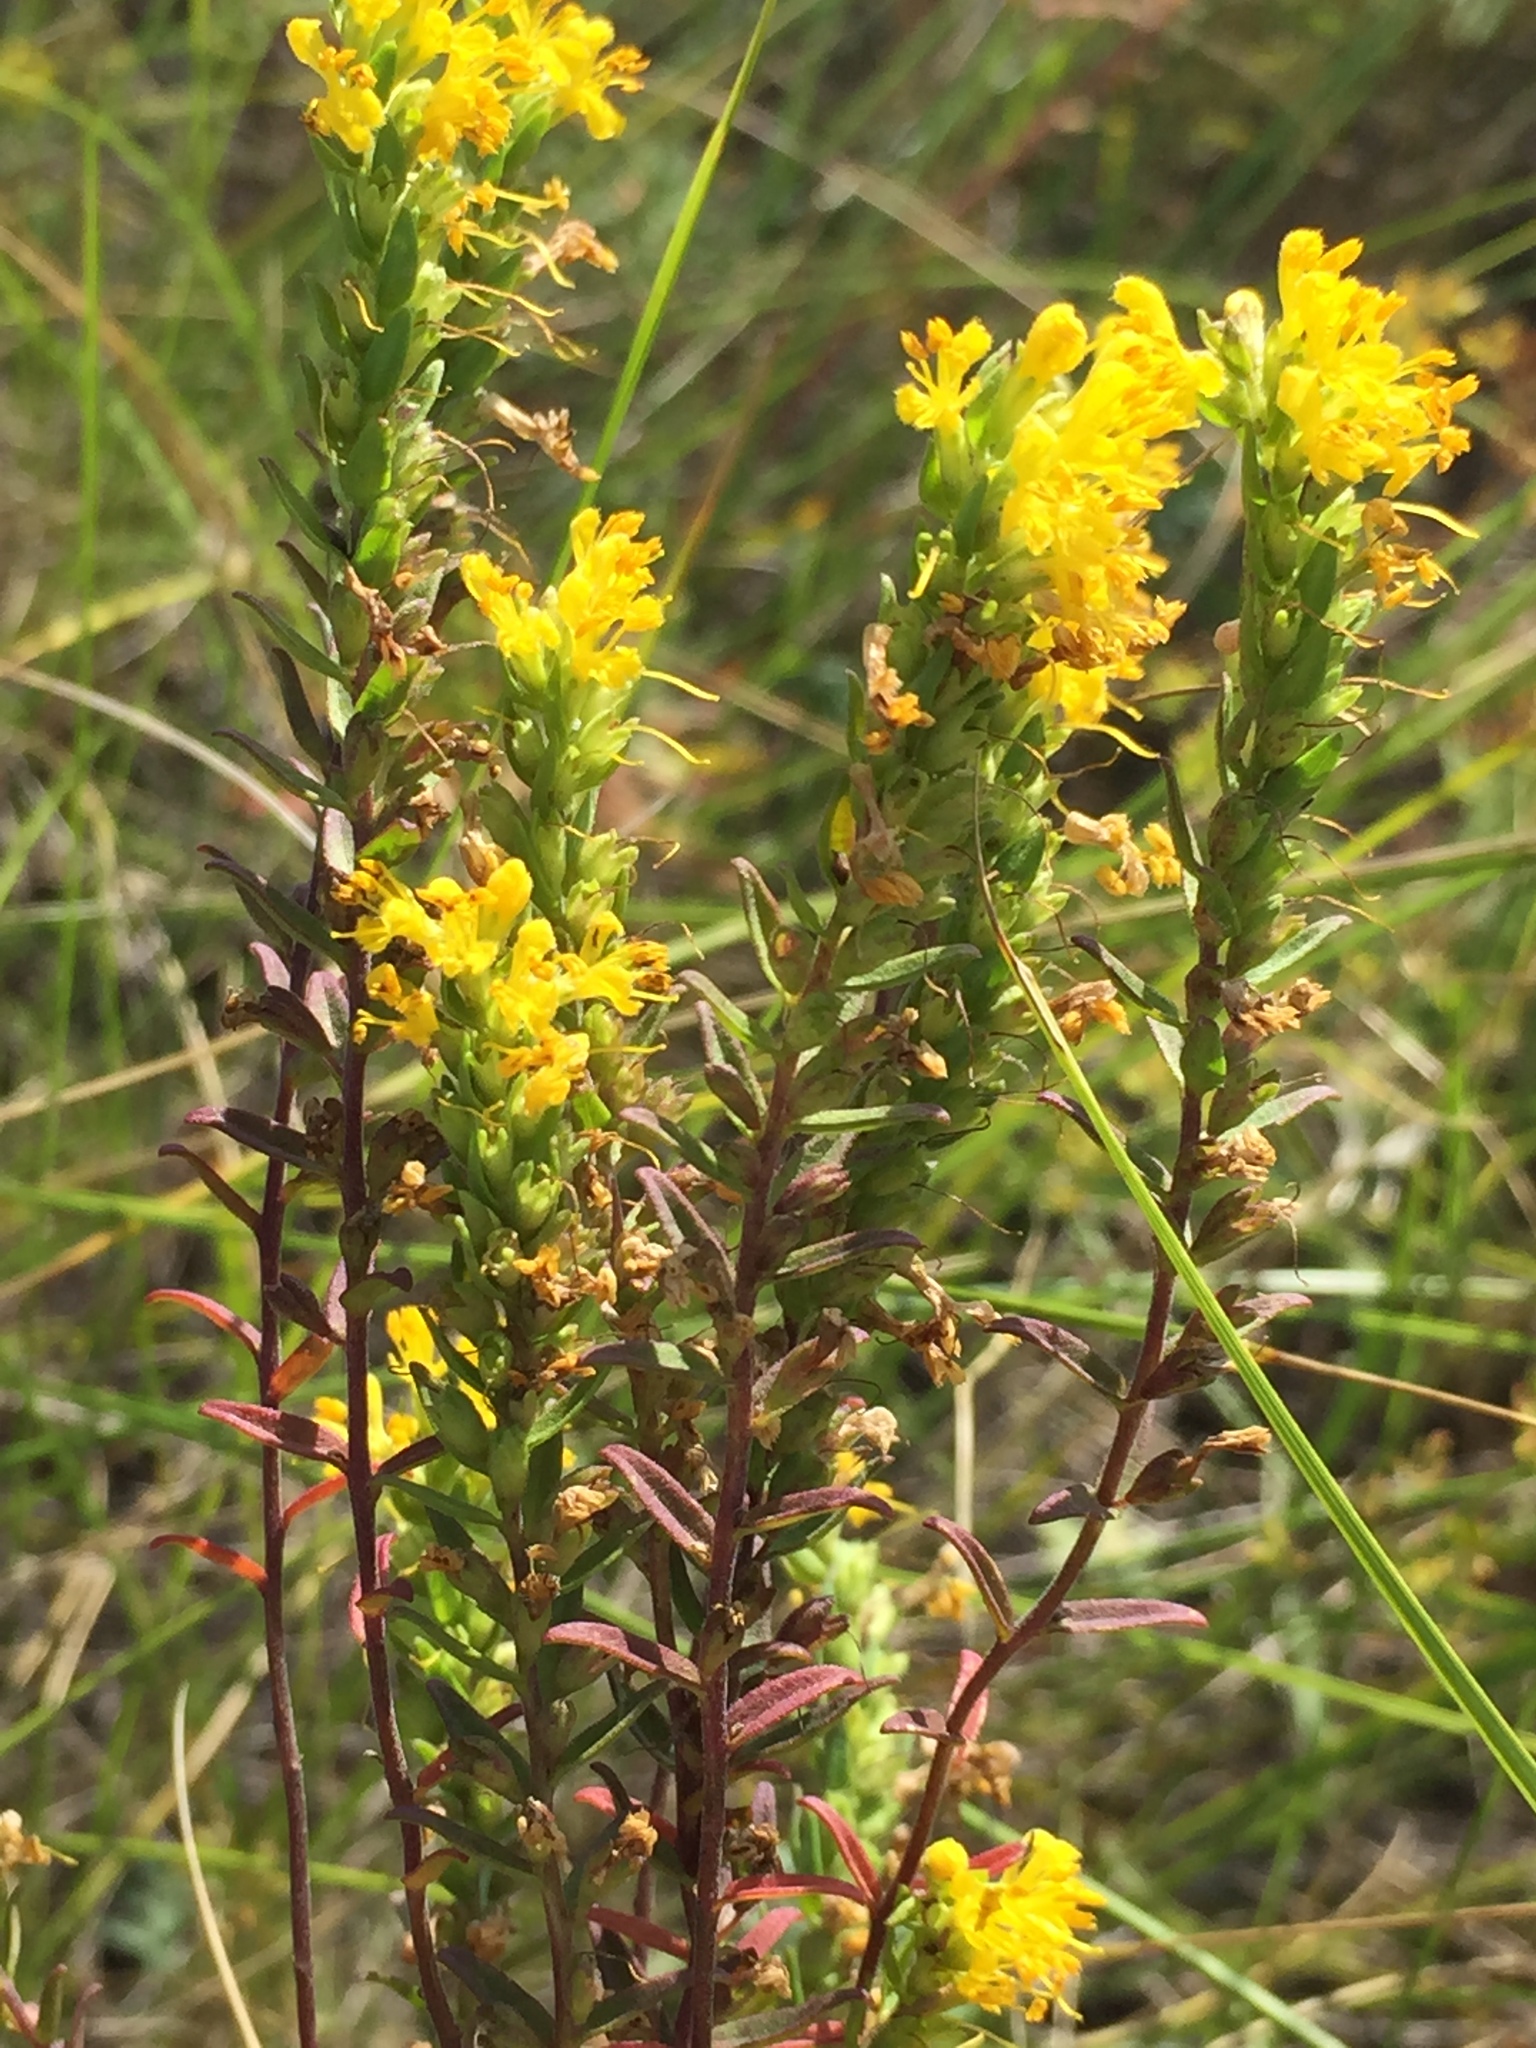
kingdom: Plantae
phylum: Tracheophyta
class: Magnoliopsida
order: Lamiales
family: Orobanchaceae
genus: Odontites
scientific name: Odontites luteus
